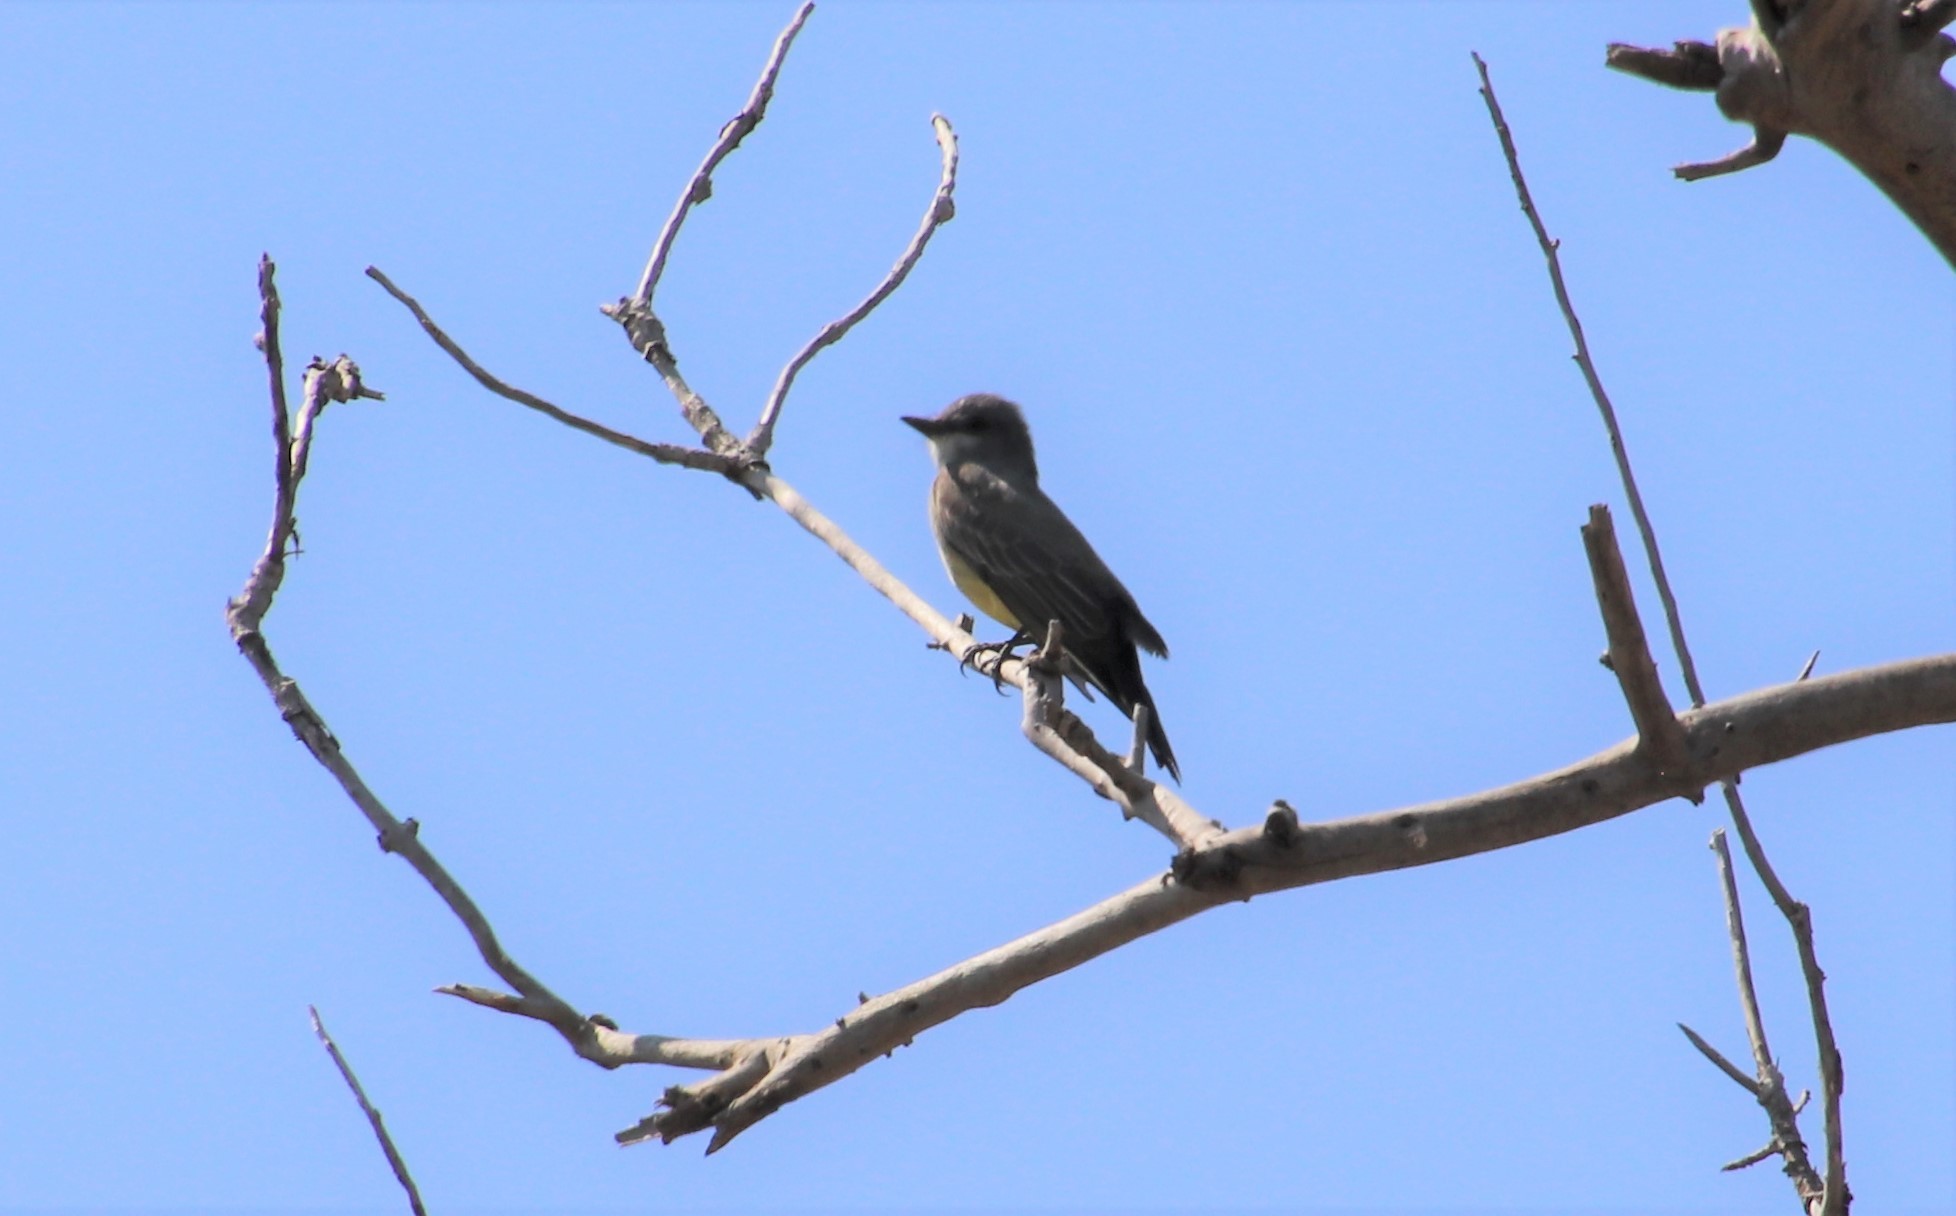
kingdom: Animalia
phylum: Chordata
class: Aves
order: Passeriformes
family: Tyrannidae
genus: Tyrannus
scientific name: Tyrannus vociferans
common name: Cassin's kingbird
